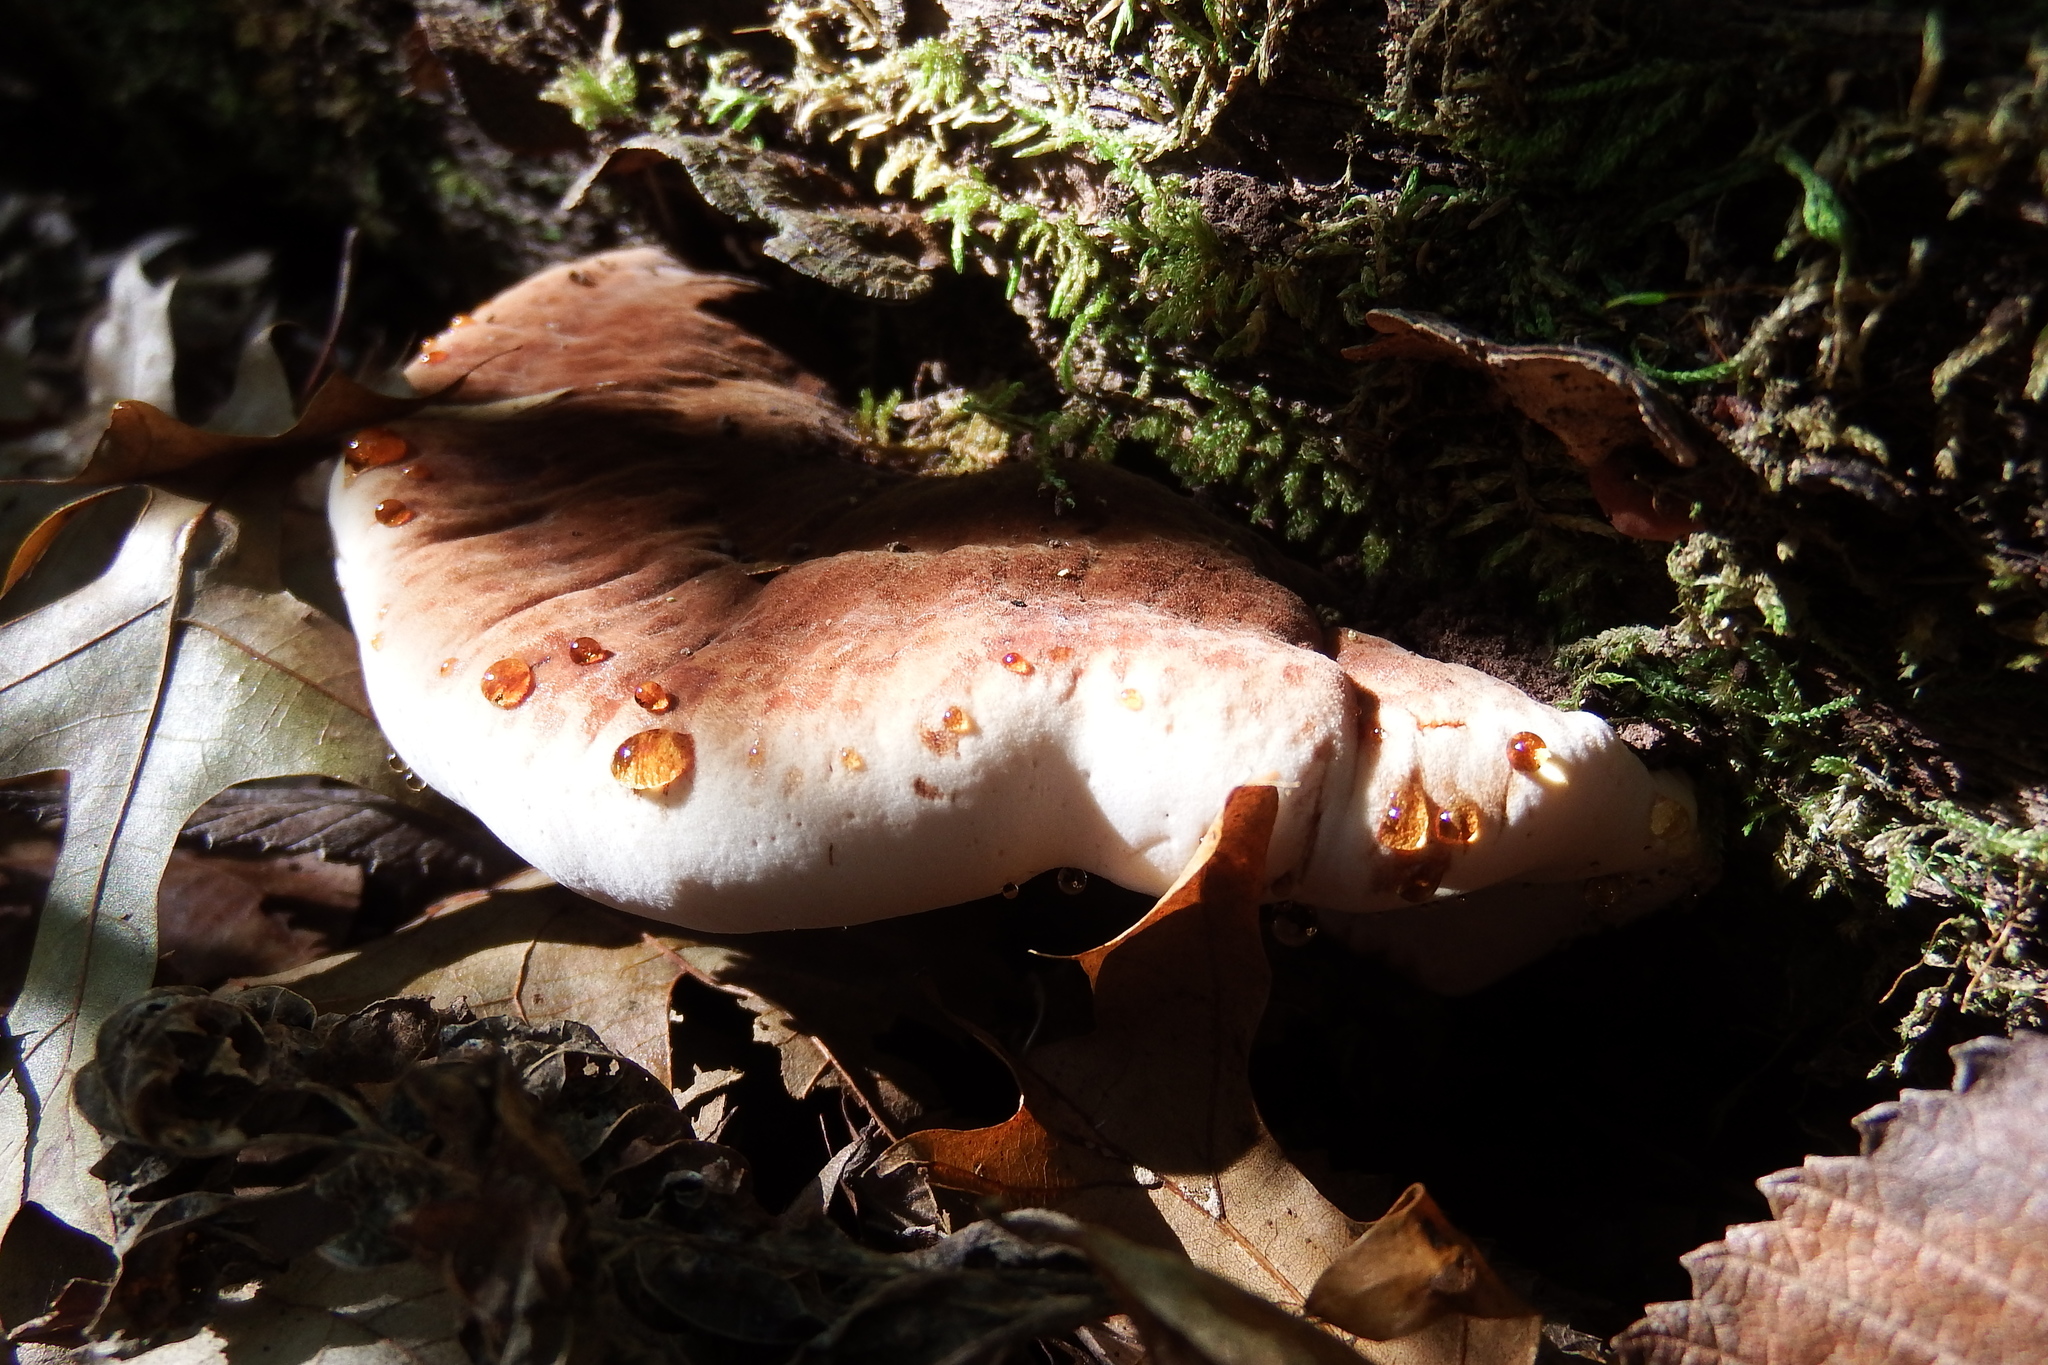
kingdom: Fungi
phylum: Basidiomycota
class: Agaricomycetes
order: Polyporales
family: Ischnodermataceae
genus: Ischnoderma
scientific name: Ischnoderma resinosum
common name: Resinous polypore
